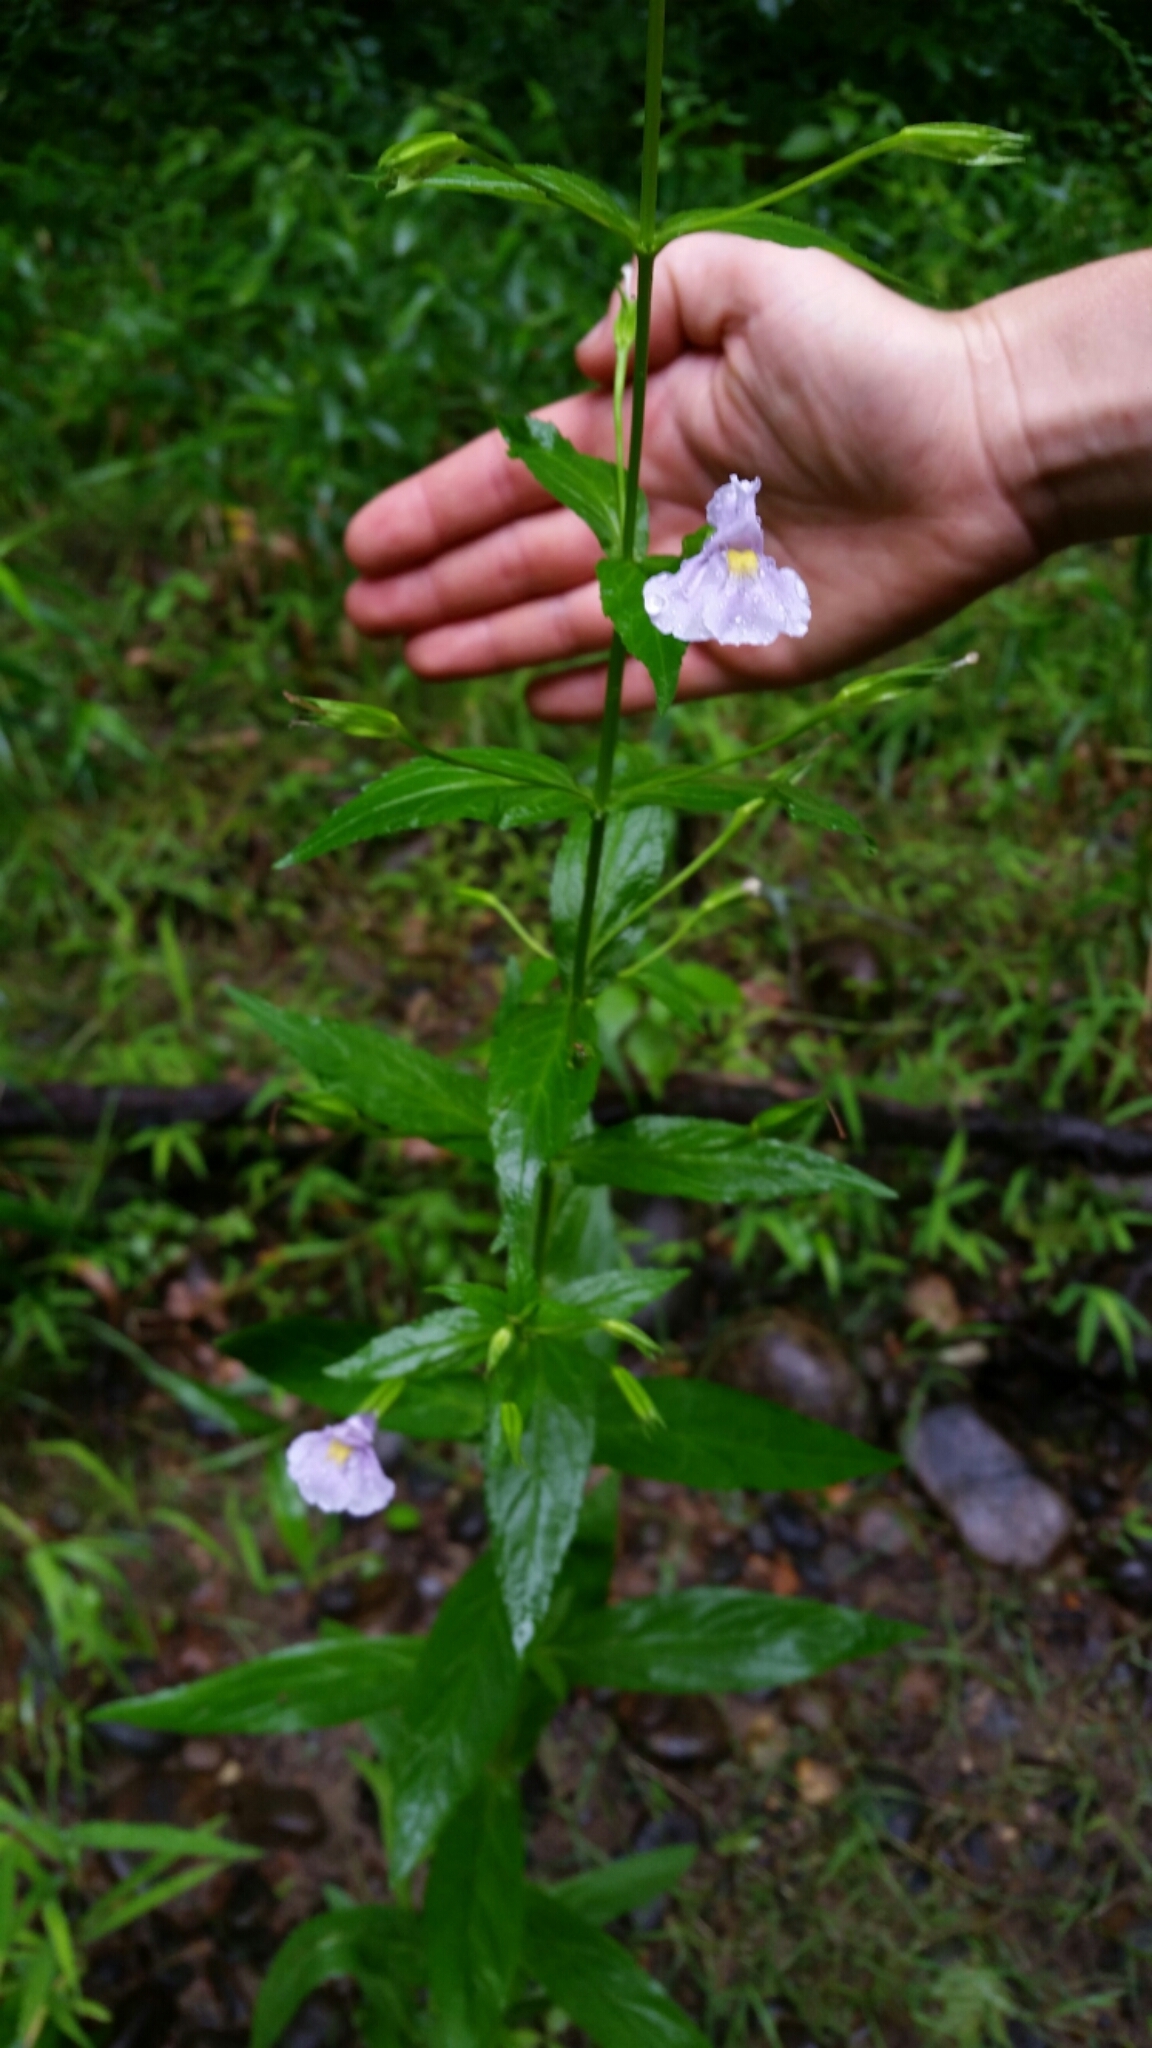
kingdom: Plantae
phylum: Tracheophyta
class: Magnoliopsida
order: Lamiales
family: Phrymaceae
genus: Mimulus
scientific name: Mimulus ringens
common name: Allegheny monkeyflower
